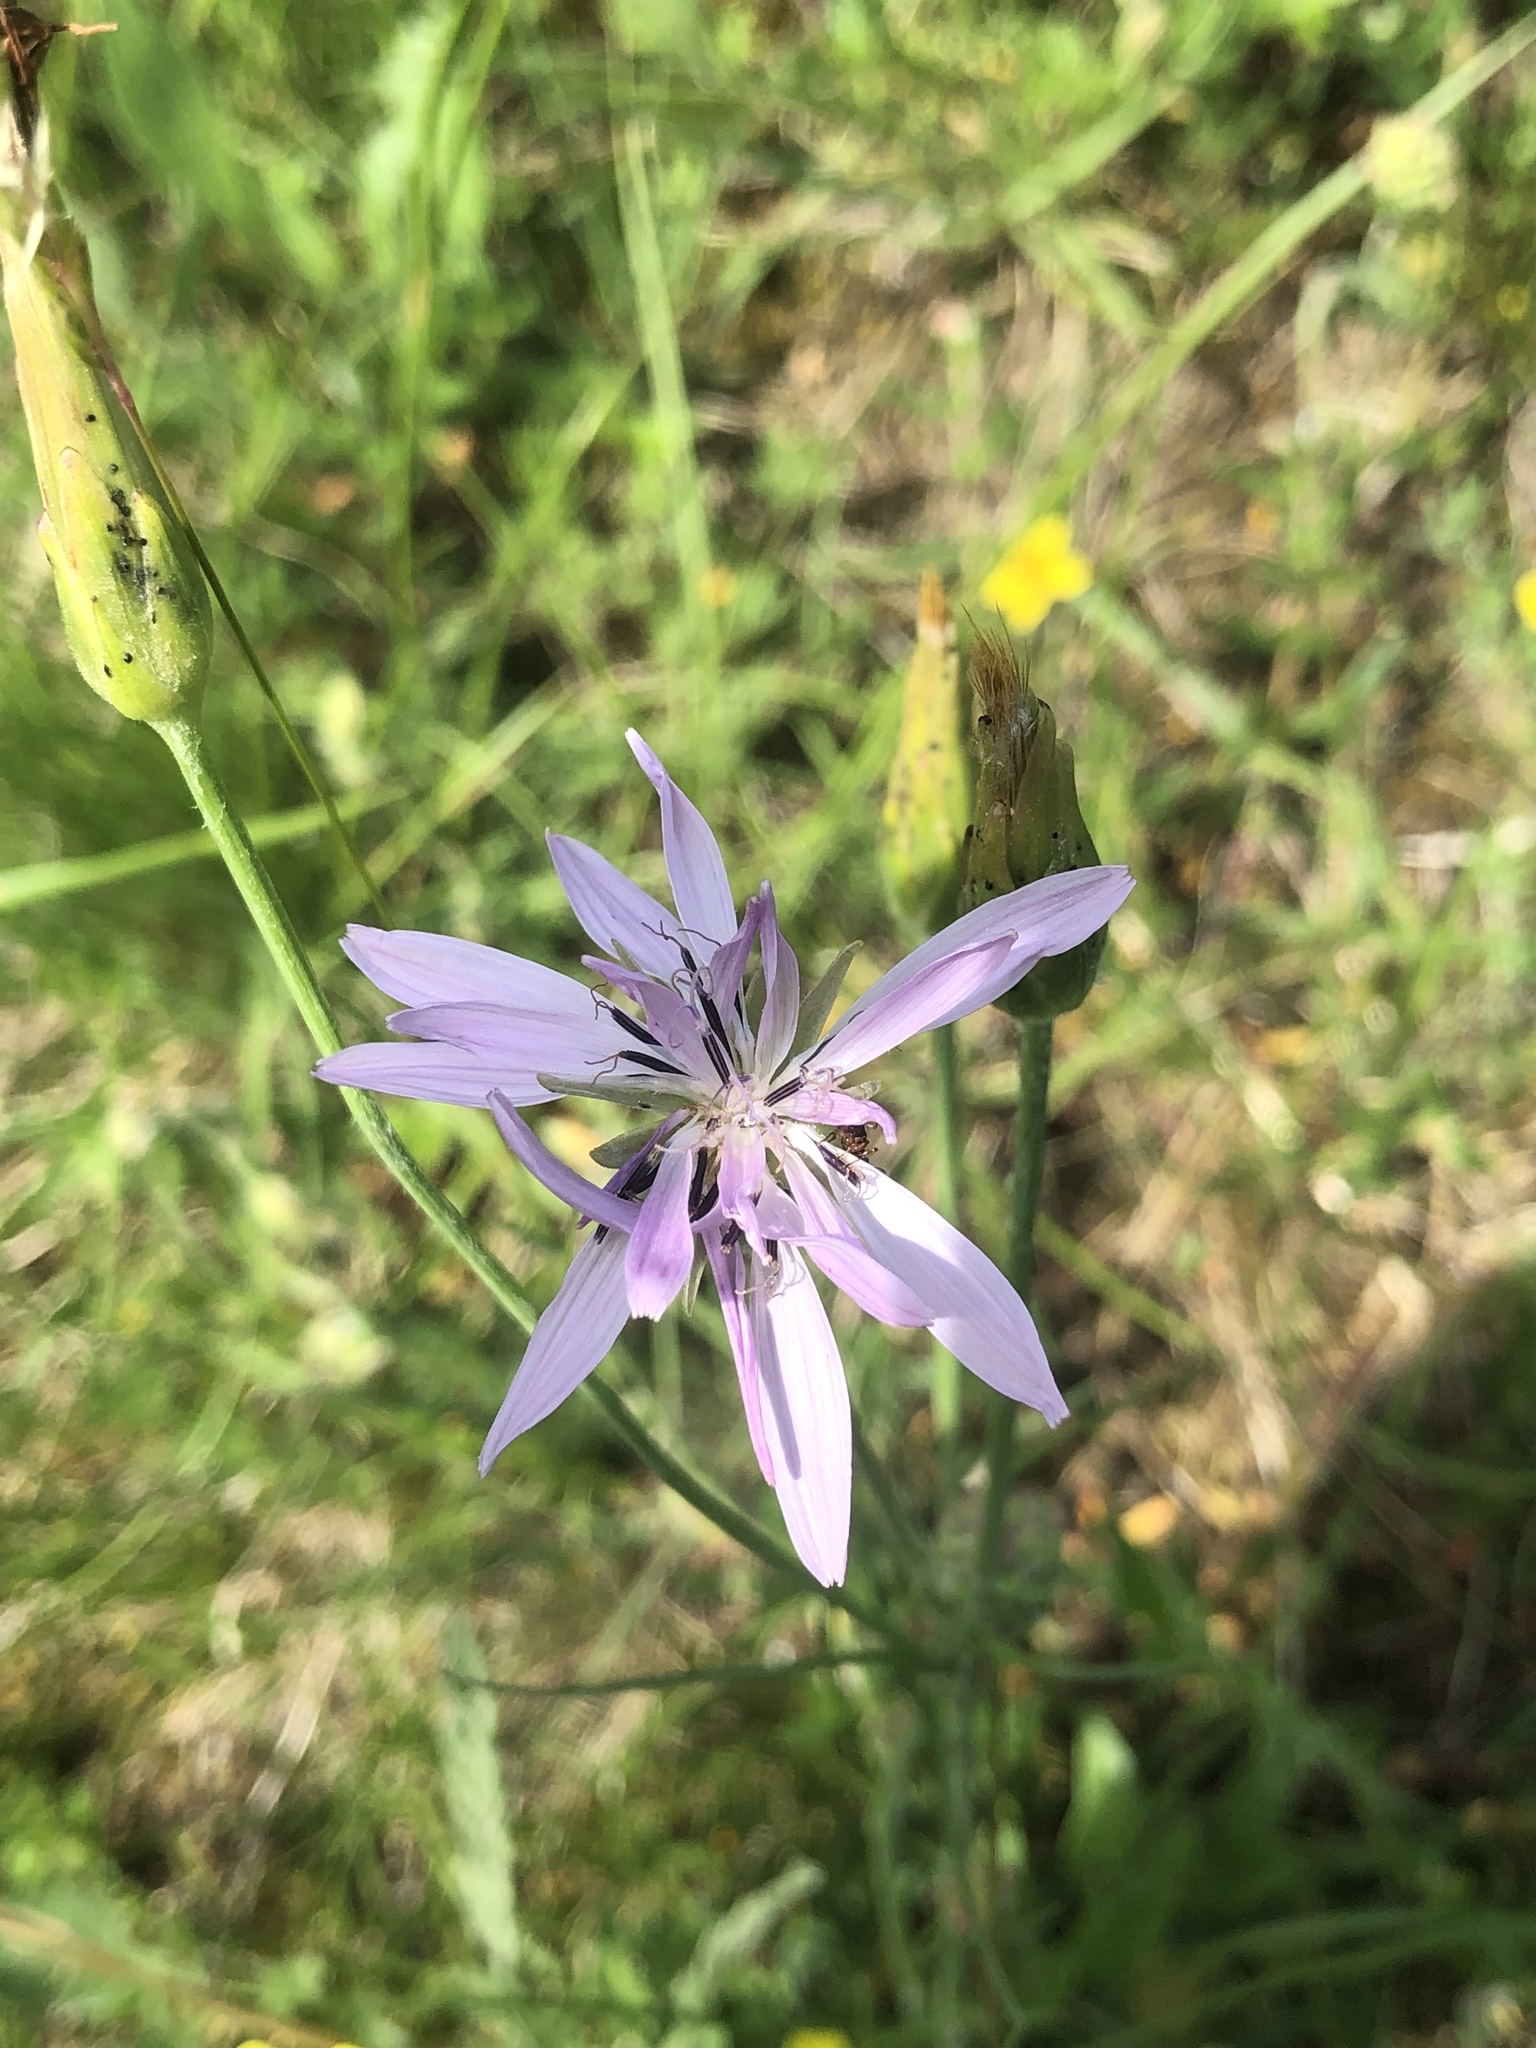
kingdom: Plantae
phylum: Tracheophyta
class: Magnoliopsida
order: Asterales
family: Asteraceae
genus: Scorzonera
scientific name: Scorzonera purpurea
